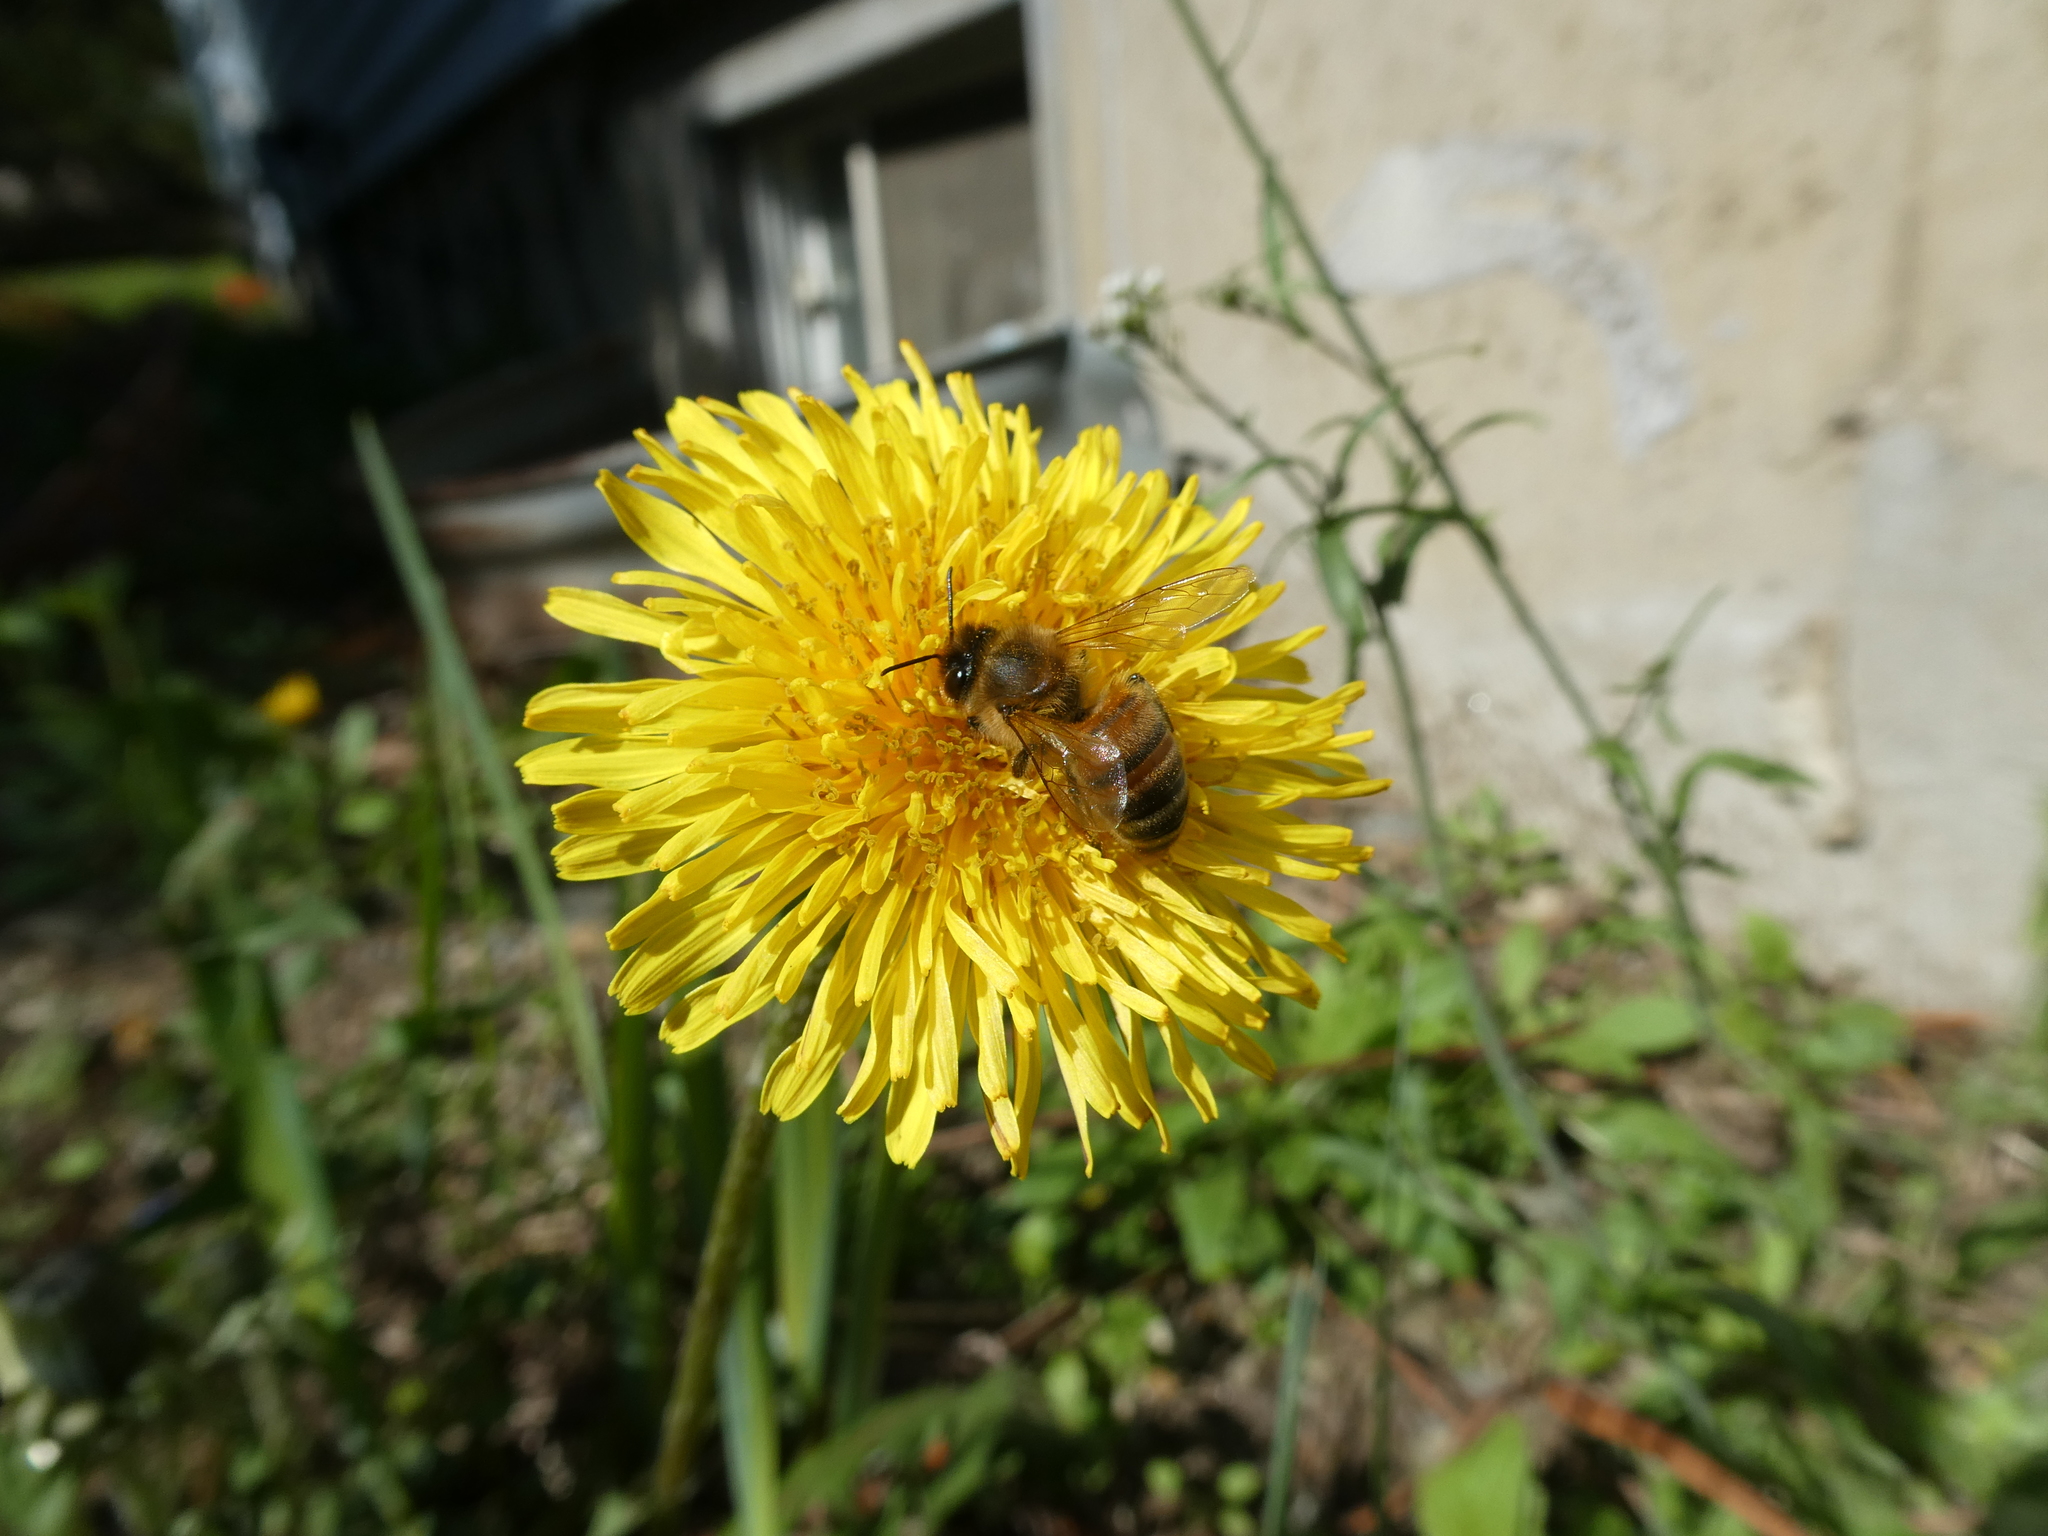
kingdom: Animalia
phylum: Arthropoda
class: Insecta
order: Hymenoptera
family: Apidae
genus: Apis
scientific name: Apis mellifera
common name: Honey bee
